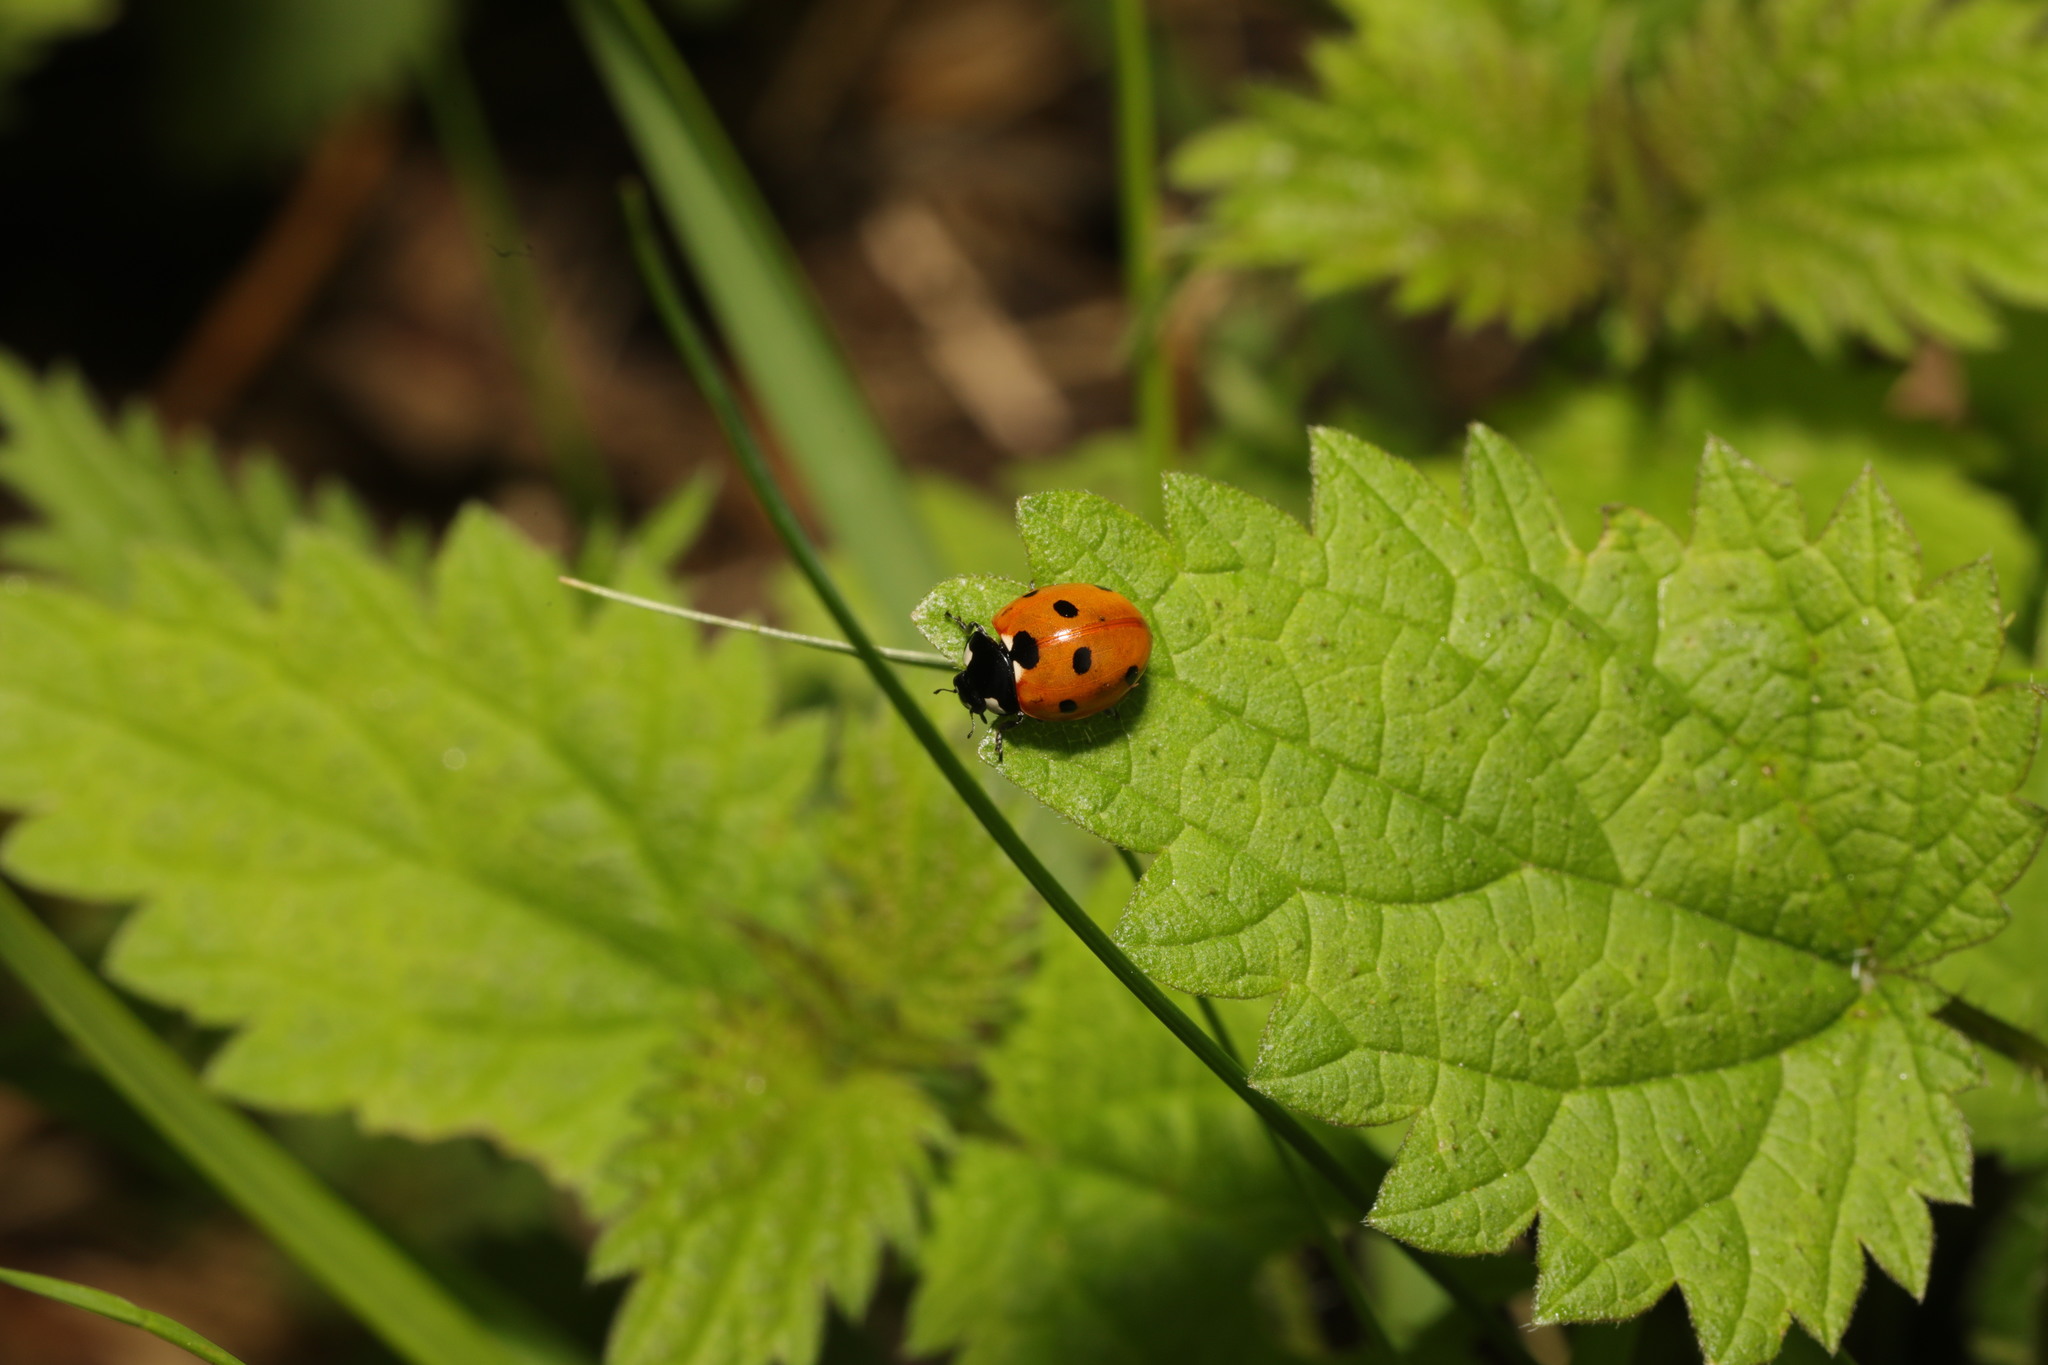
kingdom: Animalia
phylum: Arthropoda
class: Insecta
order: Coleoptera
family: Coccinellidae
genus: Coccinella
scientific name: Coccinella septempunctata
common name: Sevenspotted lady beetle
